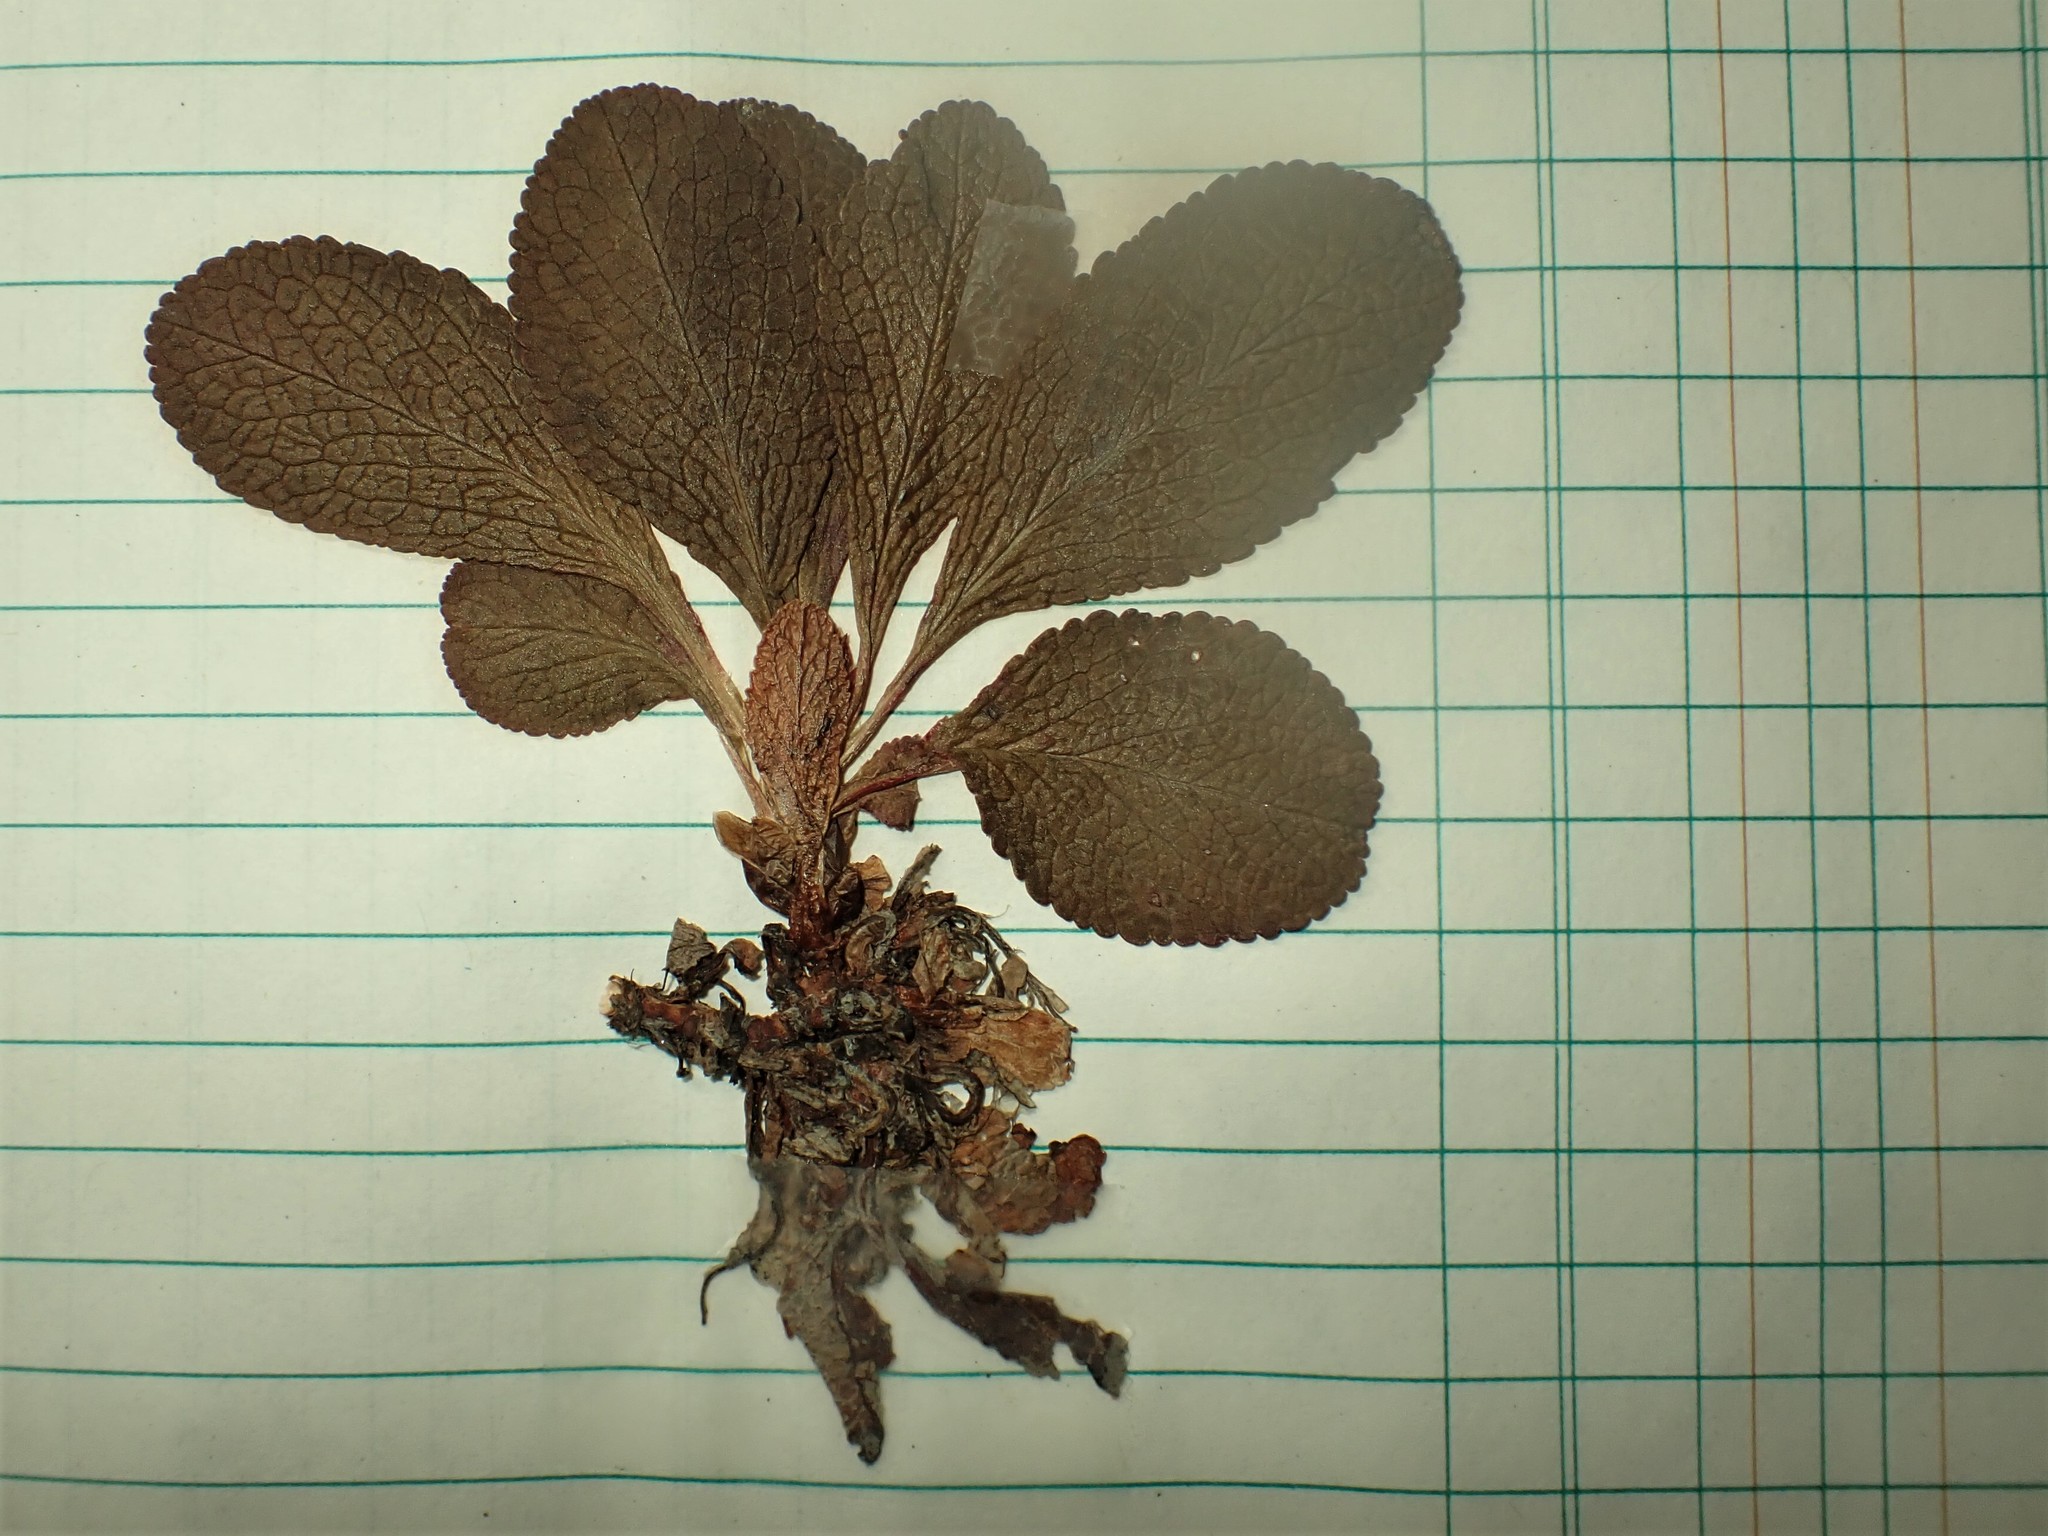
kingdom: Plantae
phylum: Tracheophyta
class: Magnoliopsida
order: Ericales
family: Ericaceae
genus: Arctostaphylos
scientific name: Arctostaphylos rubra
